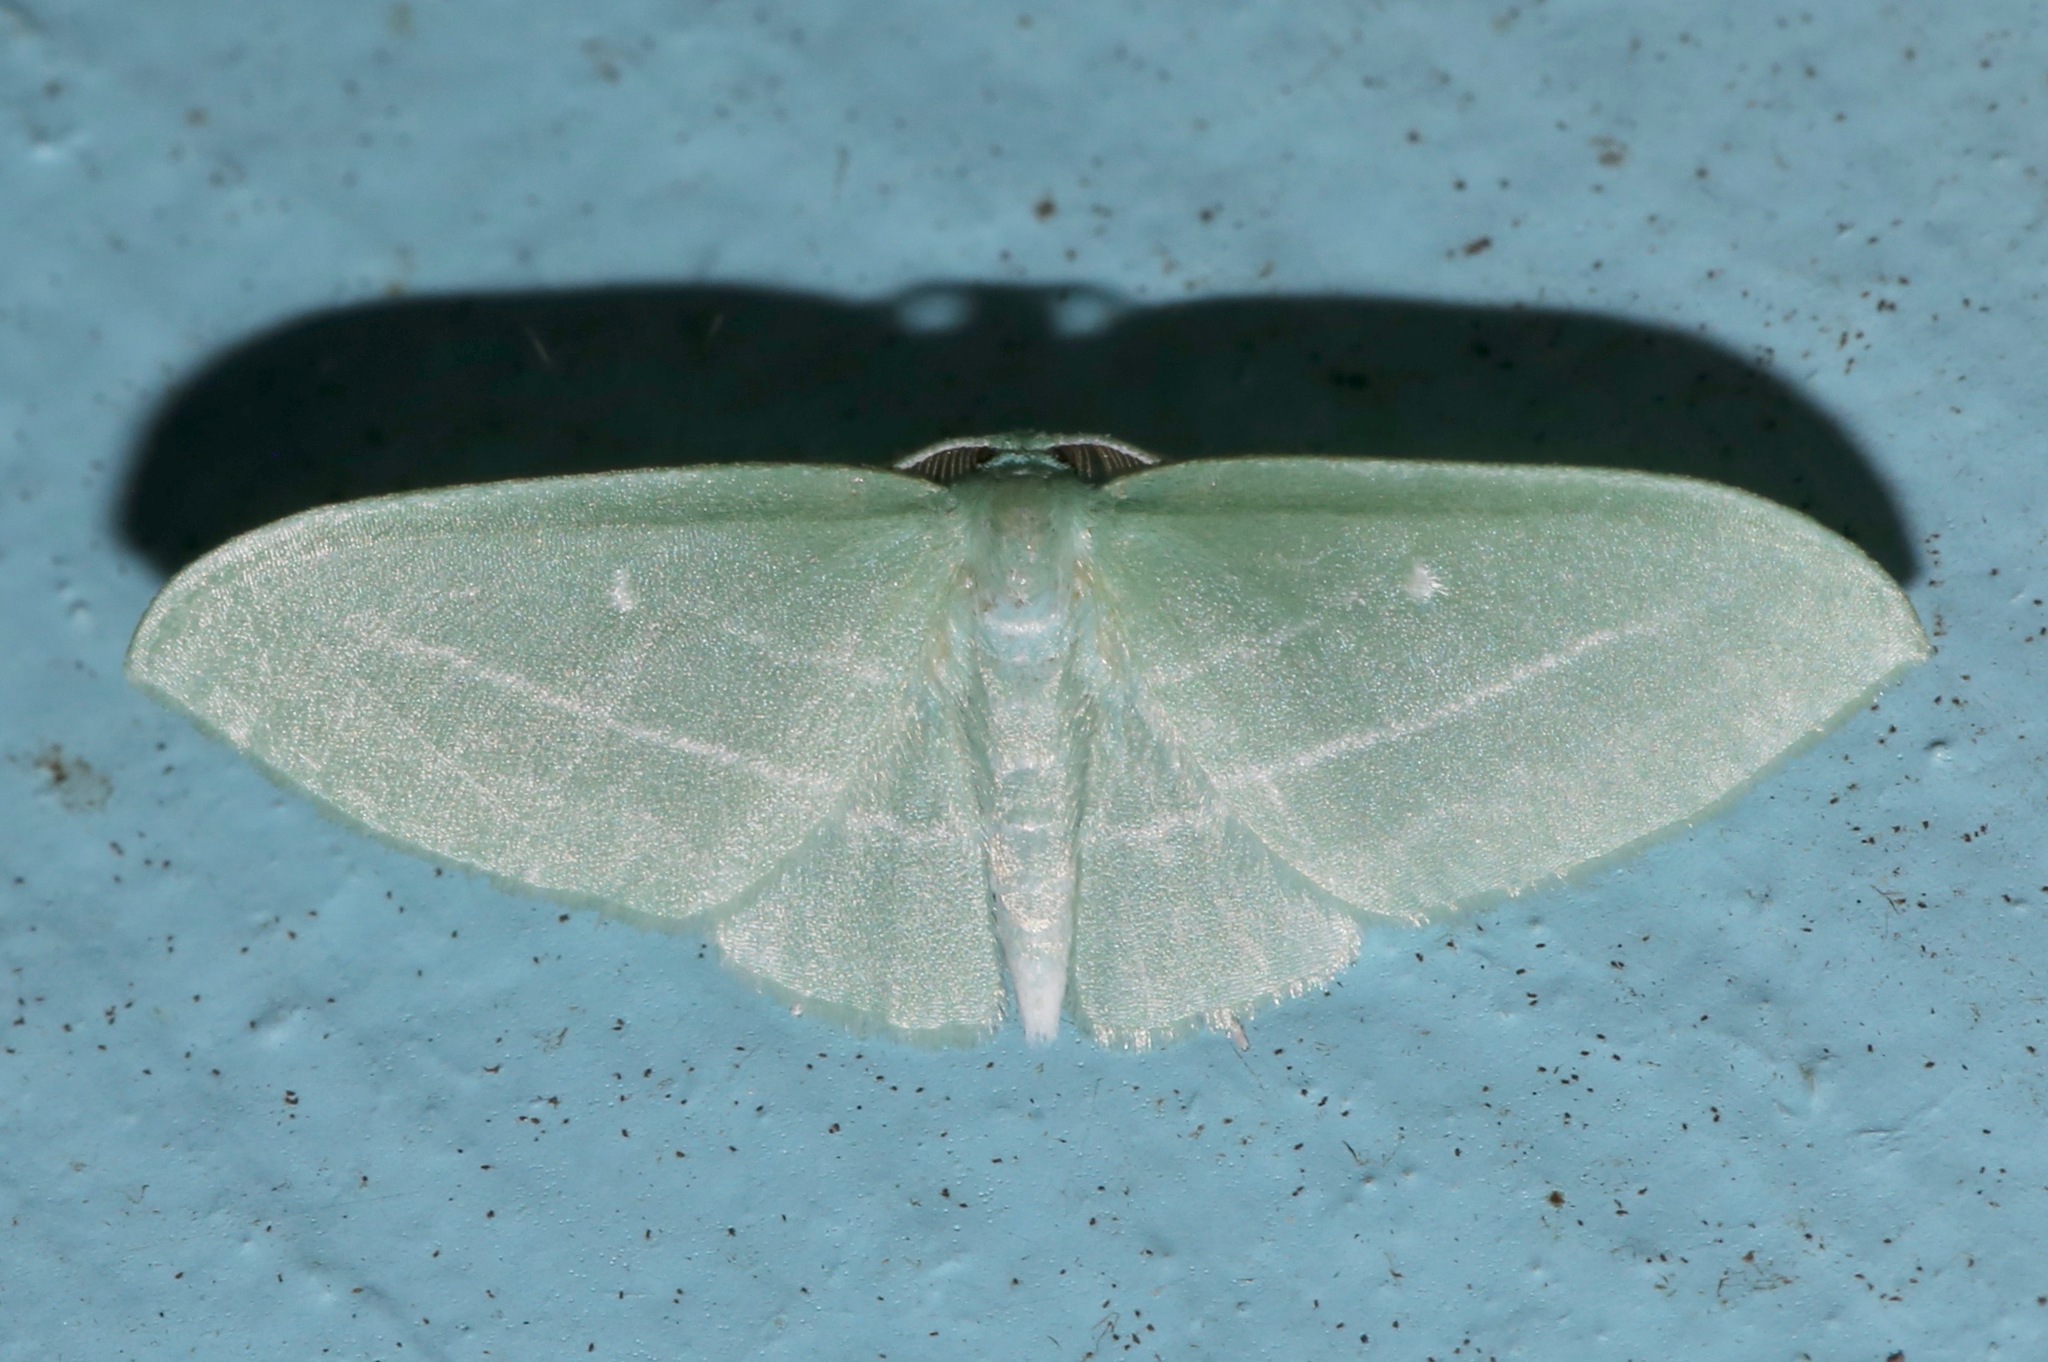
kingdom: Animalia
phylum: Arthropoda
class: Insecta
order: Lepidoptera
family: Geometridae
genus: Dyspteris
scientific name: Dyspteris abortivaria
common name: Bad-wing
